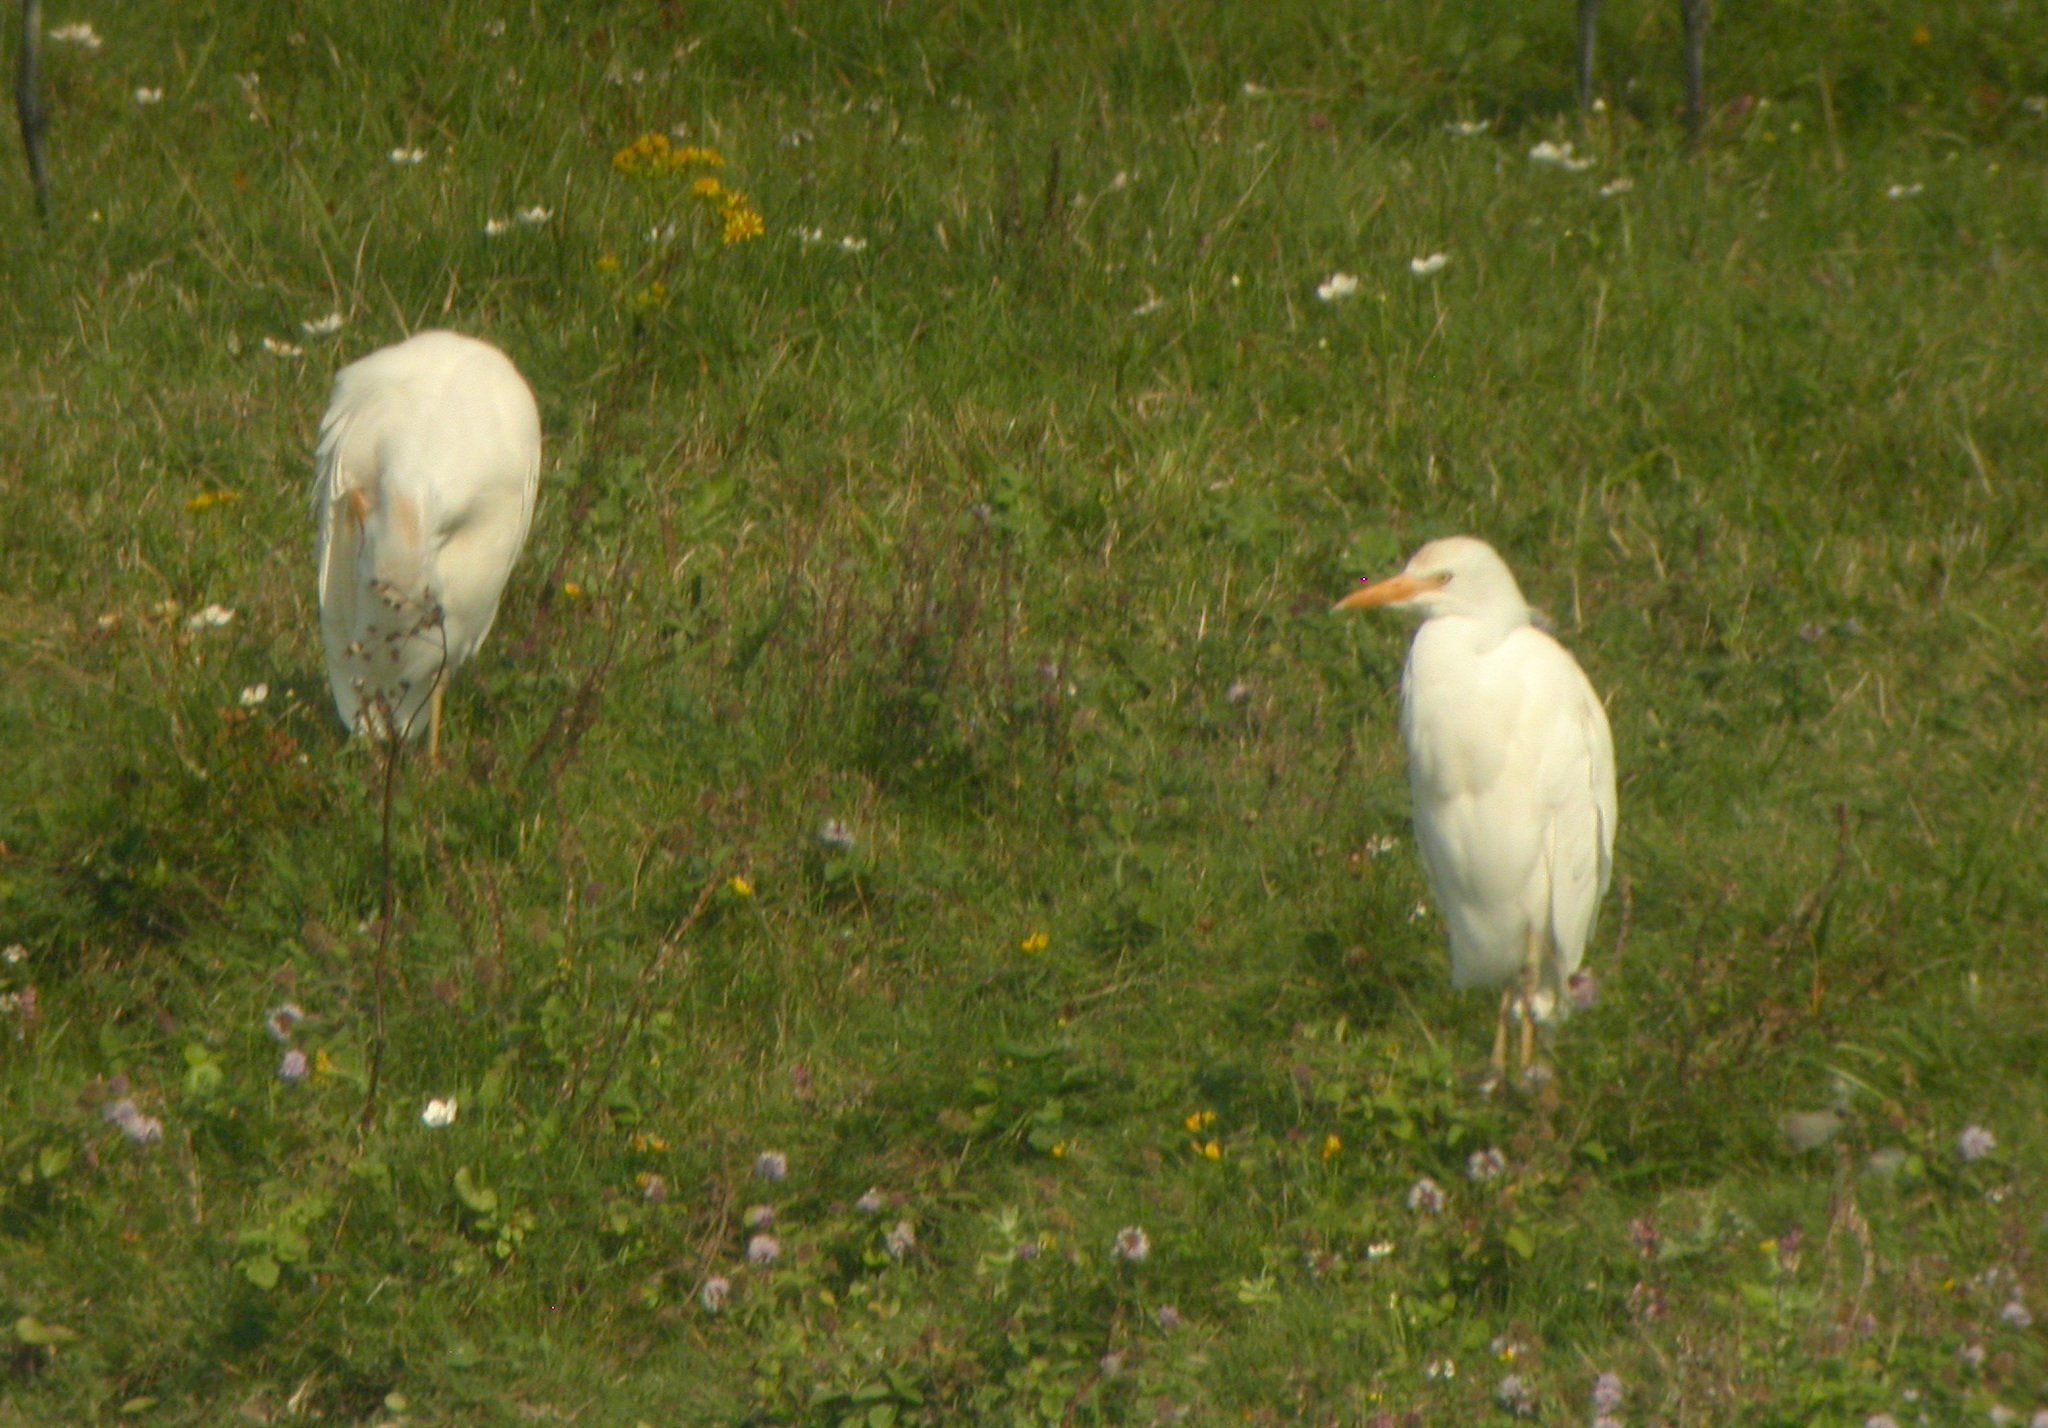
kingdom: Animalia
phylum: Chordata
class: Aves
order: Pelecaniformes
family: Ardeidae
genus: Bubulcus
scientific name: Bubulcus ibis
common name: Cattle egret
